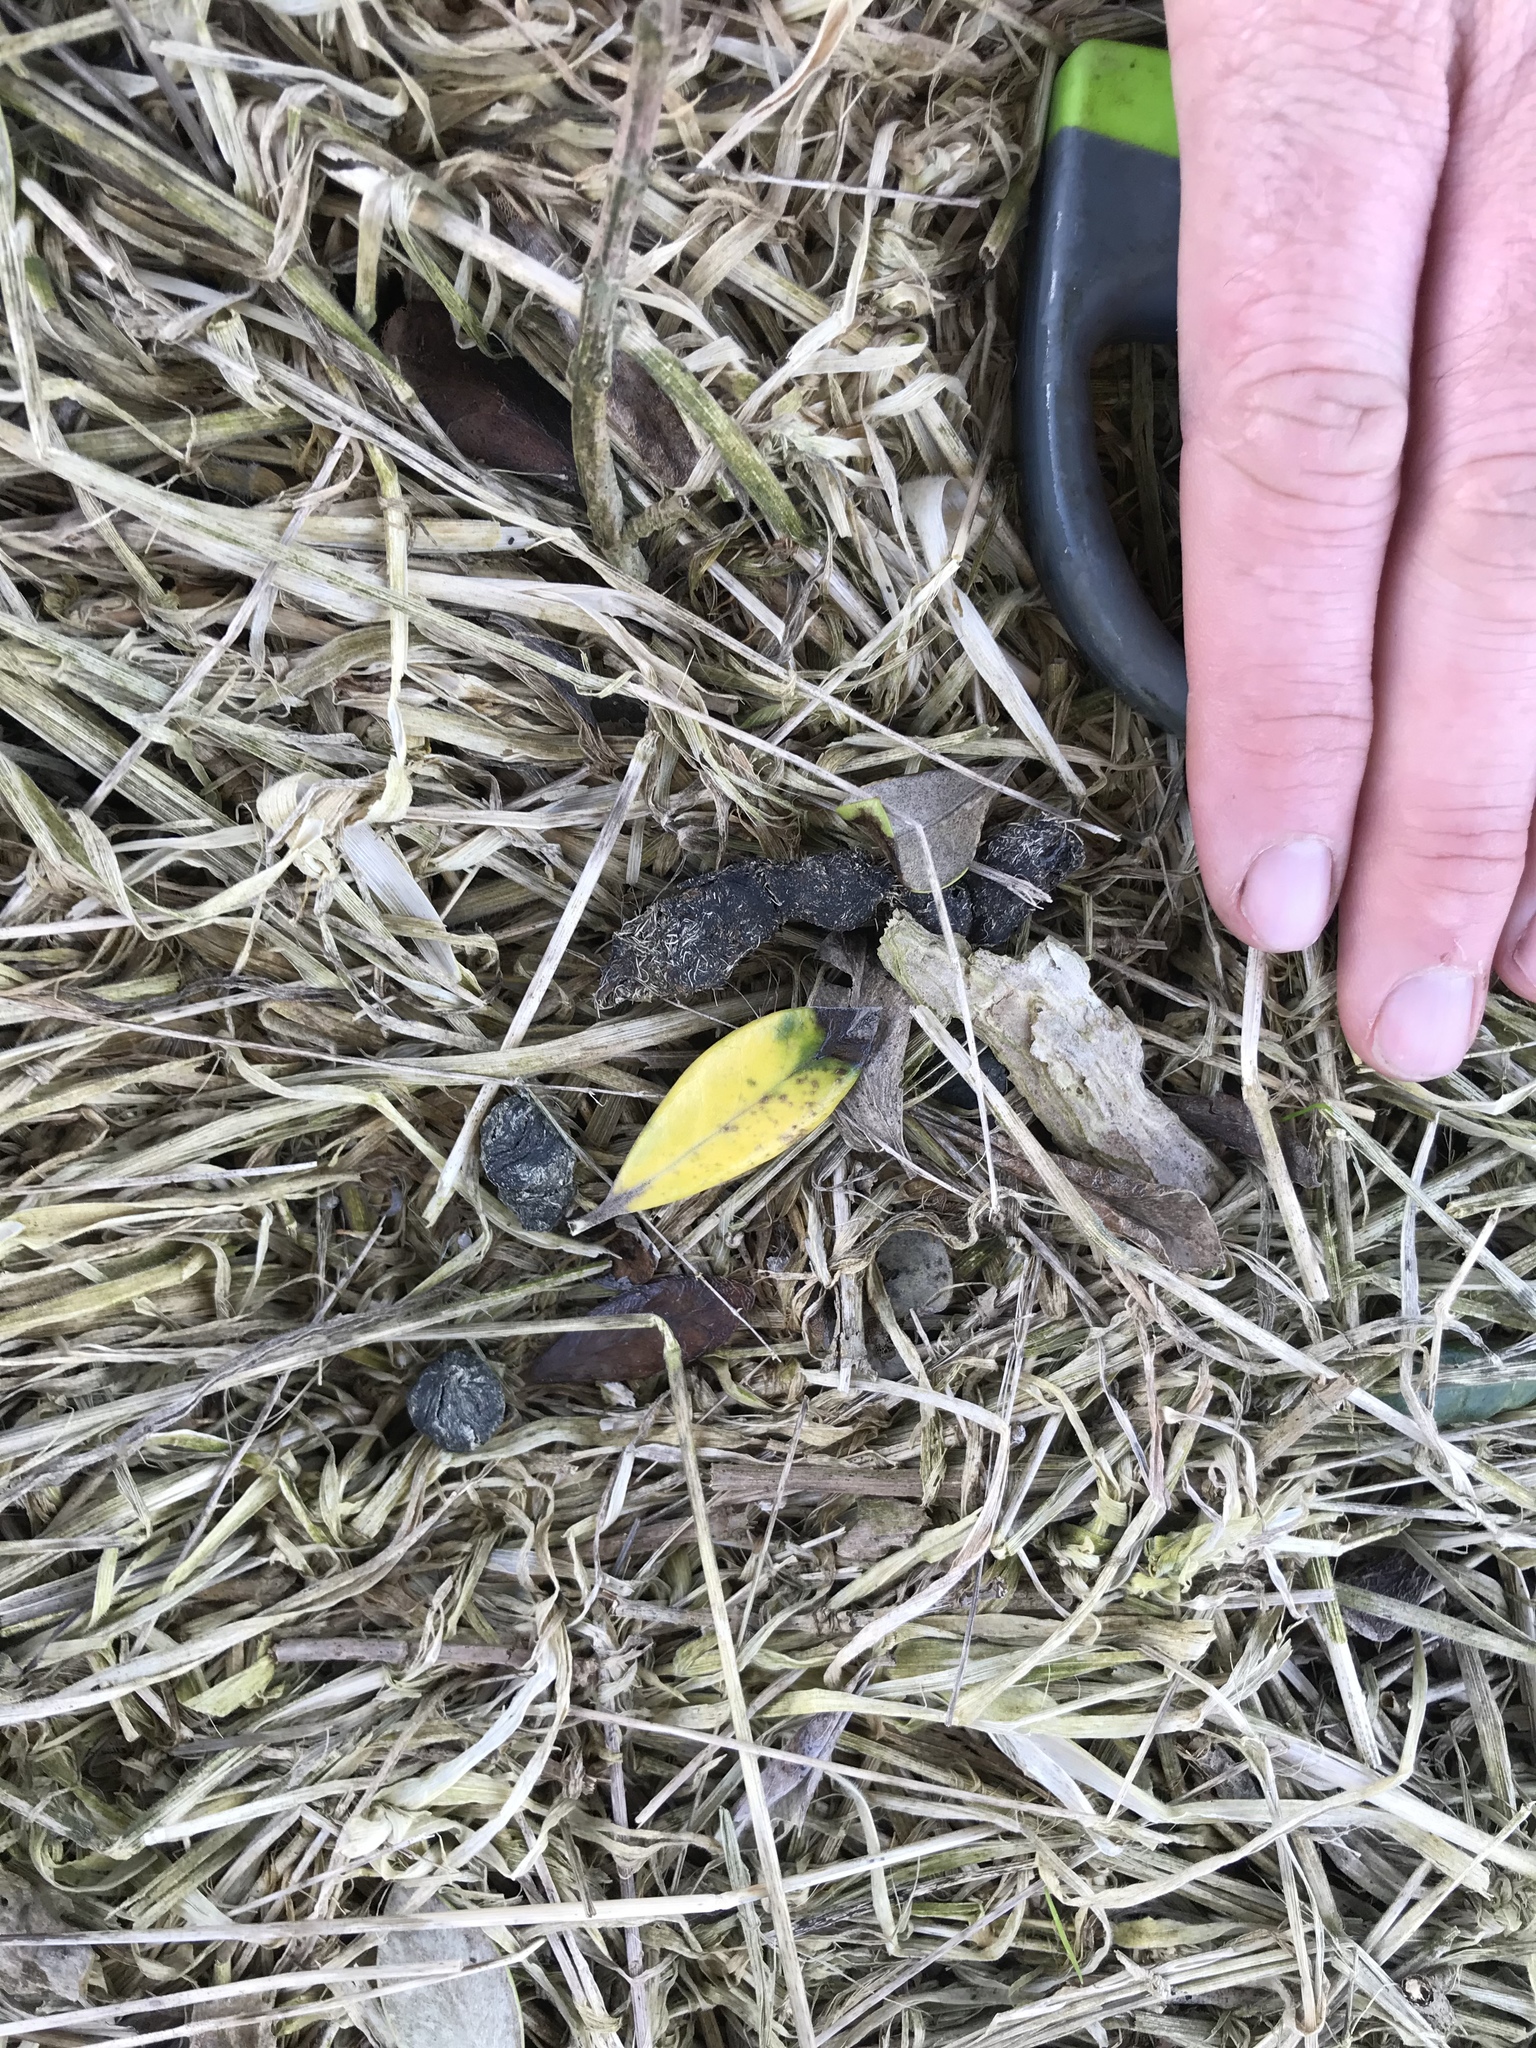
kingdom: Animalia
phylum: Chordata
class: Mammalia
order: Diprotodontia
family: Phalangeridae
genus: Trichosurus
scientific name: Trichosurus vulpecula
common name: Common brushtail
